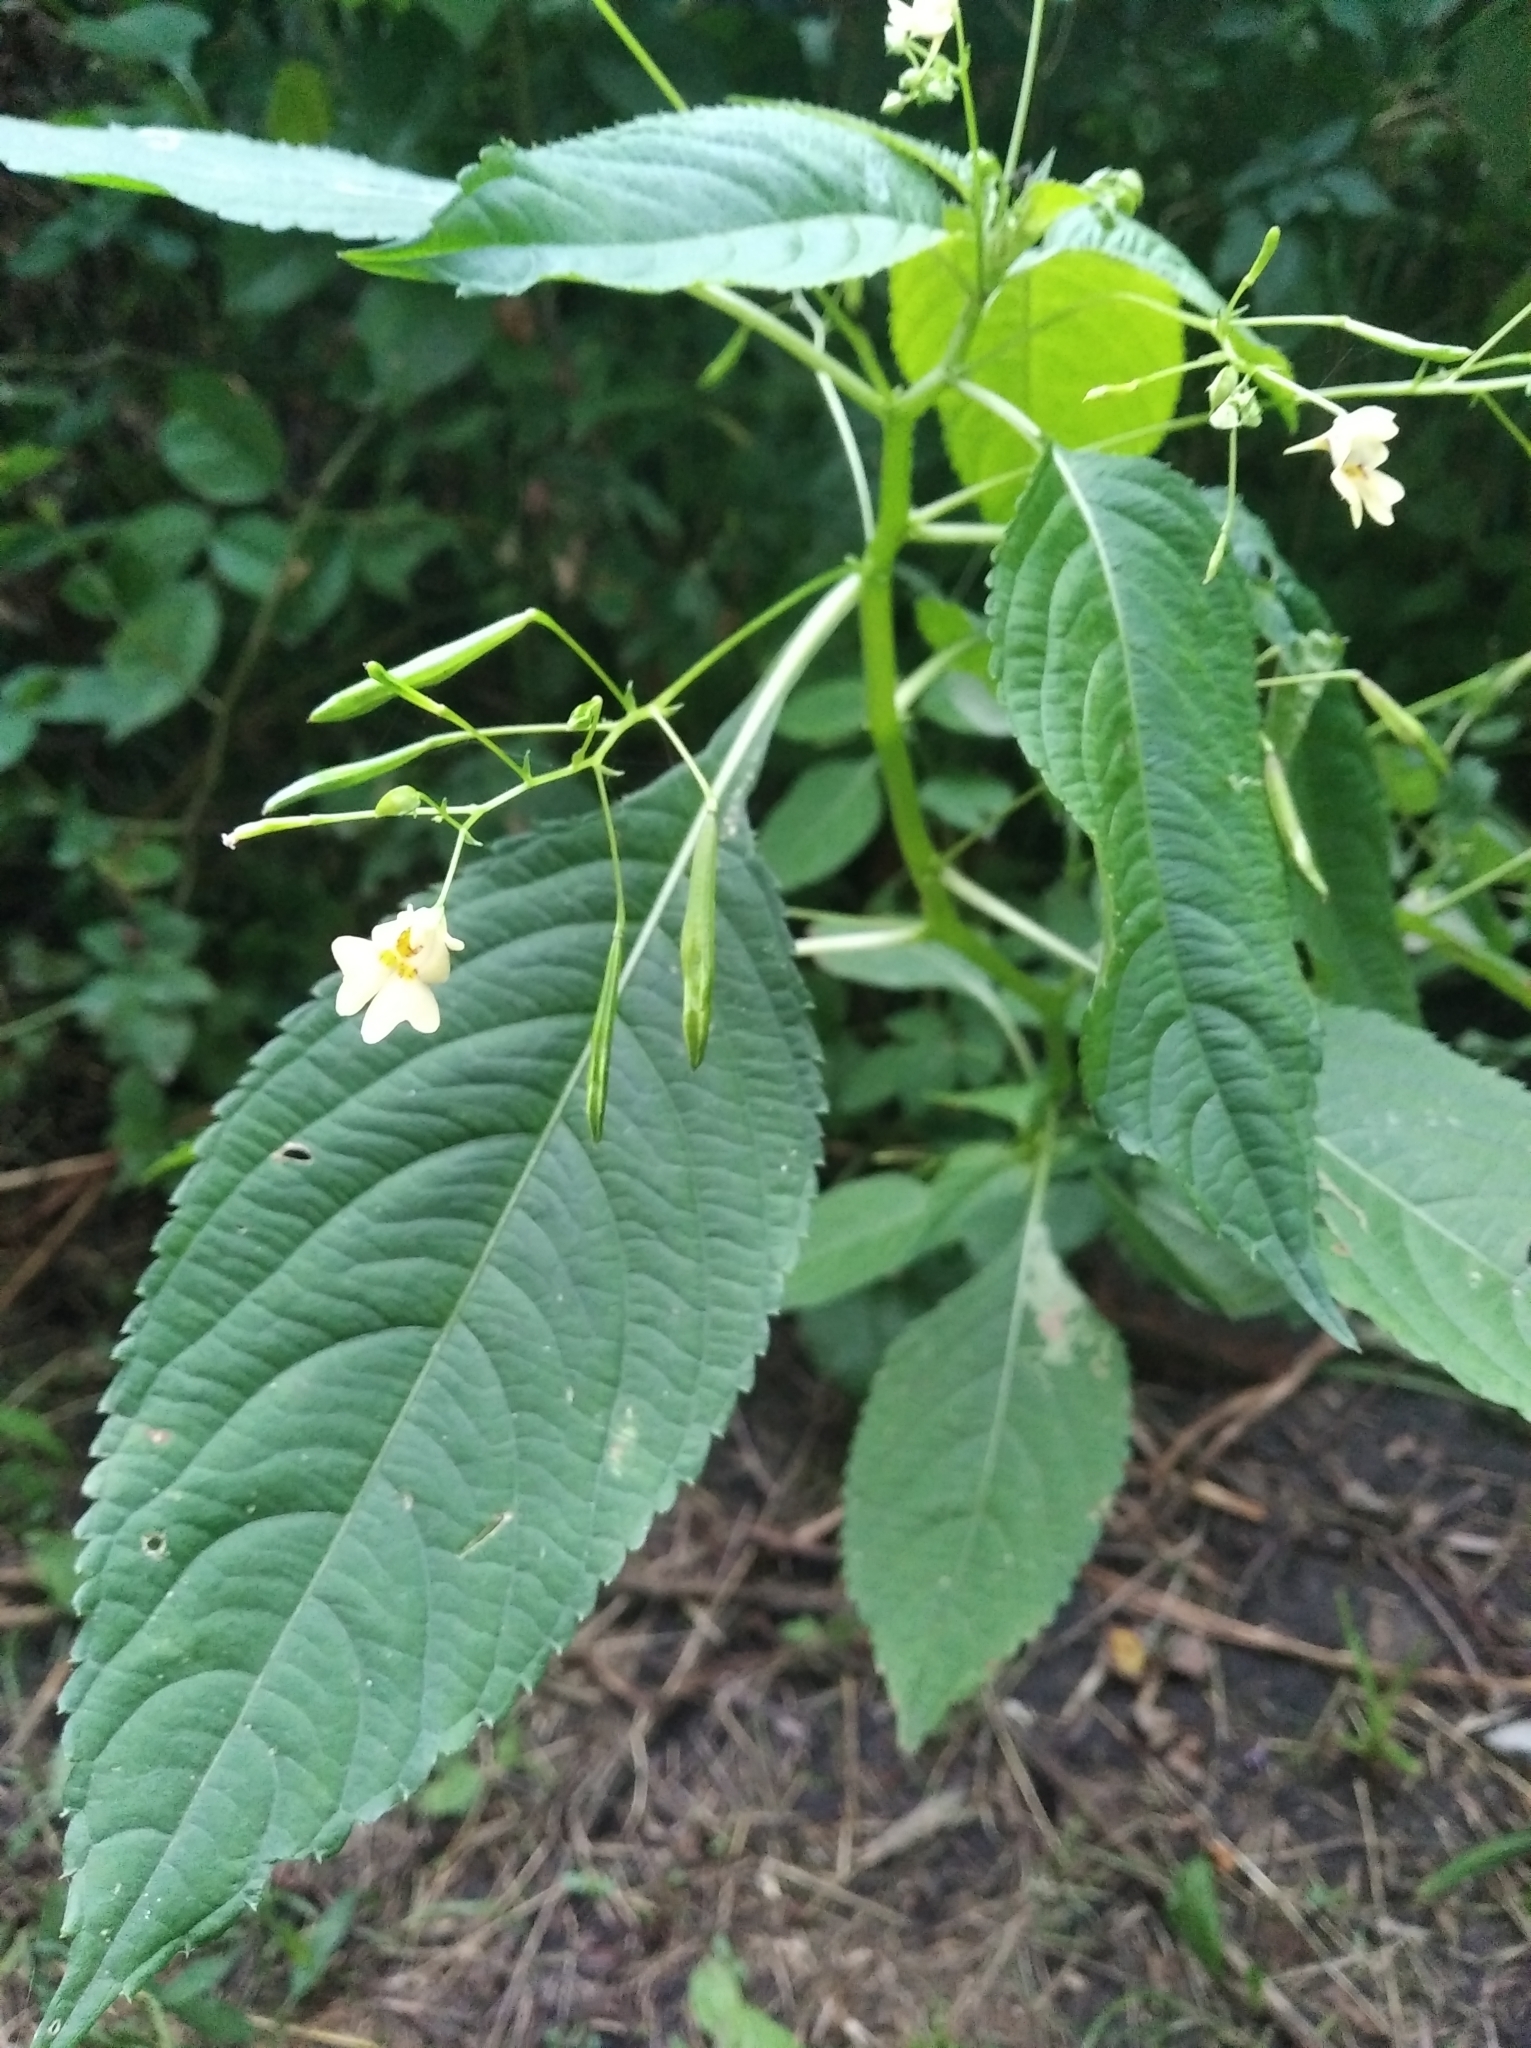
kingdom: Plantae
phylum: Tracheophyta
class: Magnoliopsida
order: Ericales
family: Balsaminaceae
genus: Impatiens
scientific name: Impatiens parviflora
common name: Small balsam
